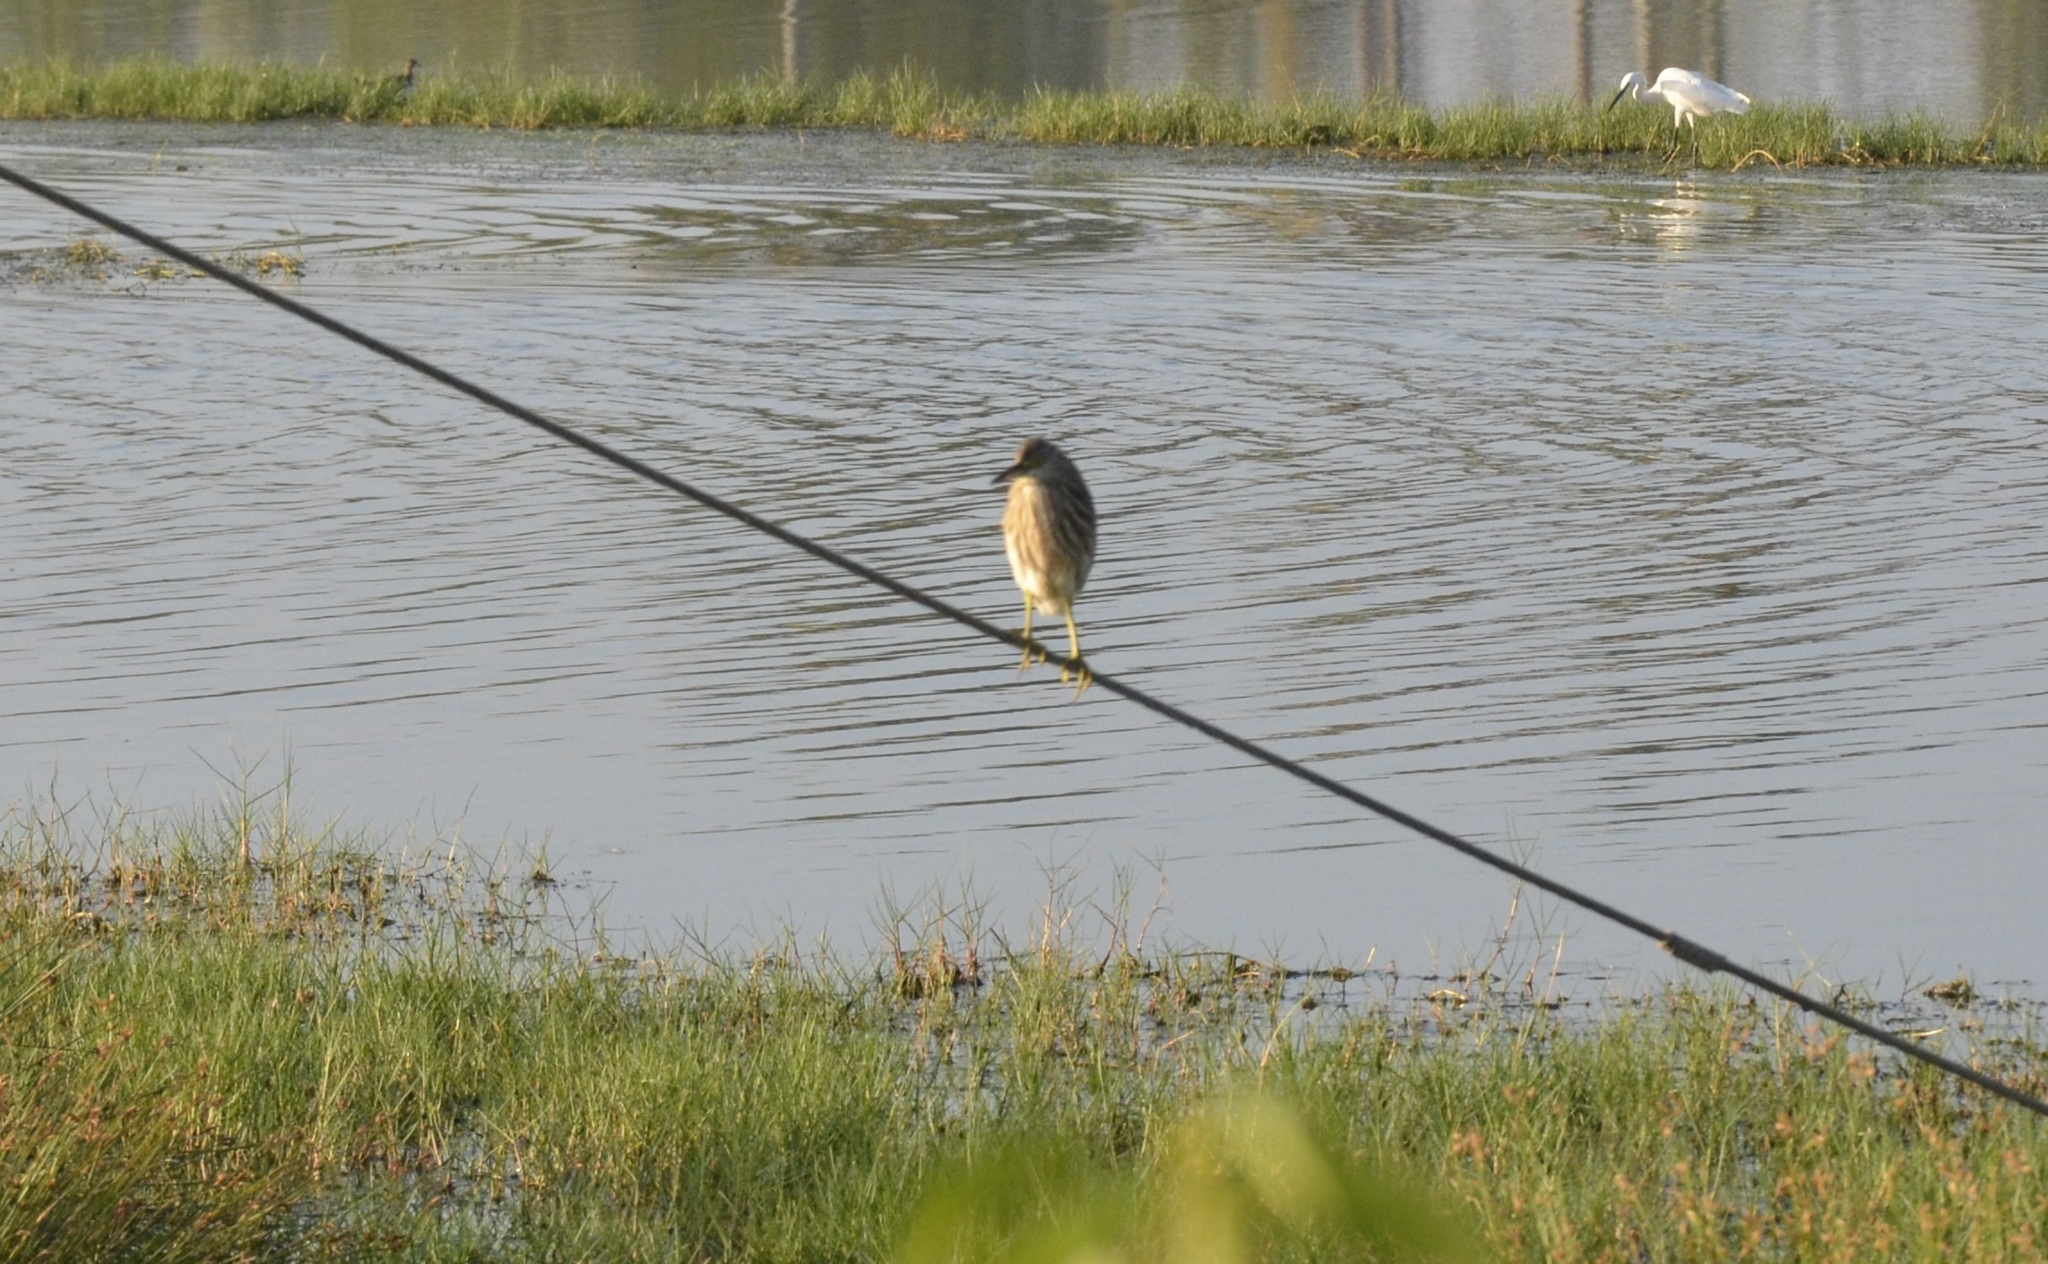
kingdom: Animalia
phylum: Chordata
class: Aves
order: Pelecaniformes
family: Ardeidae
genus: Ardeola
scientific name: Ardeola grayii
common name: Indian pond heron
